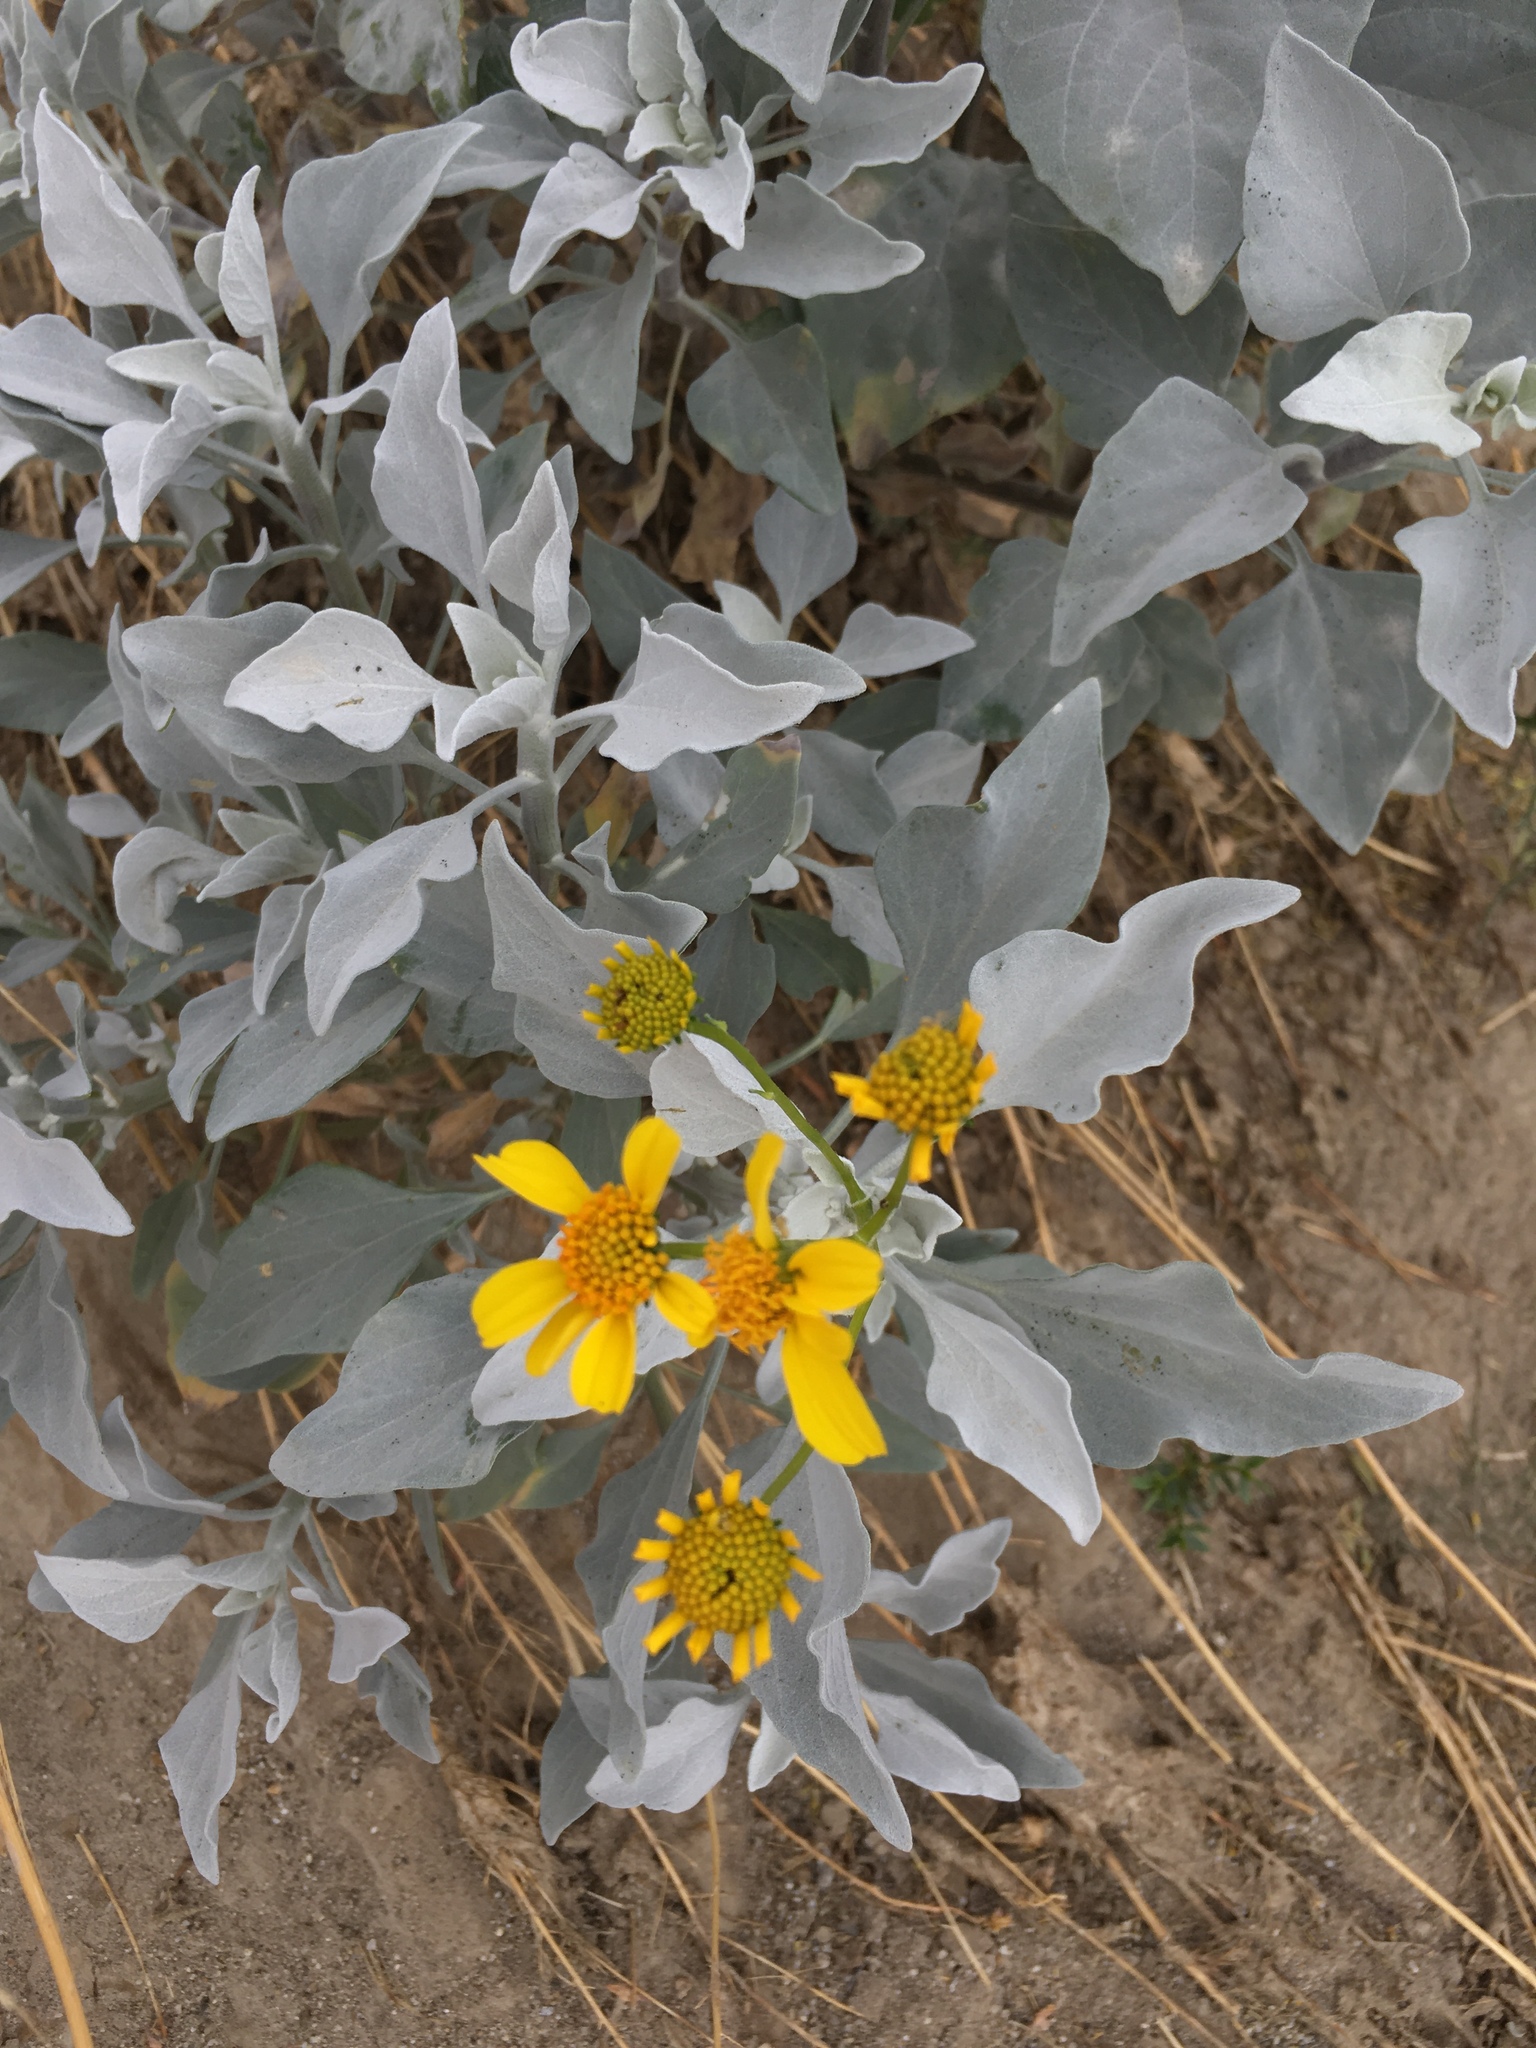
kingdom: Plantae
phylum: Tracheophyta
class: Magnoliopsida
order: Asterales
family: Asteraceae
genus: Encelia
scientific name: Encelia farinosa
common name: Brittlebush
